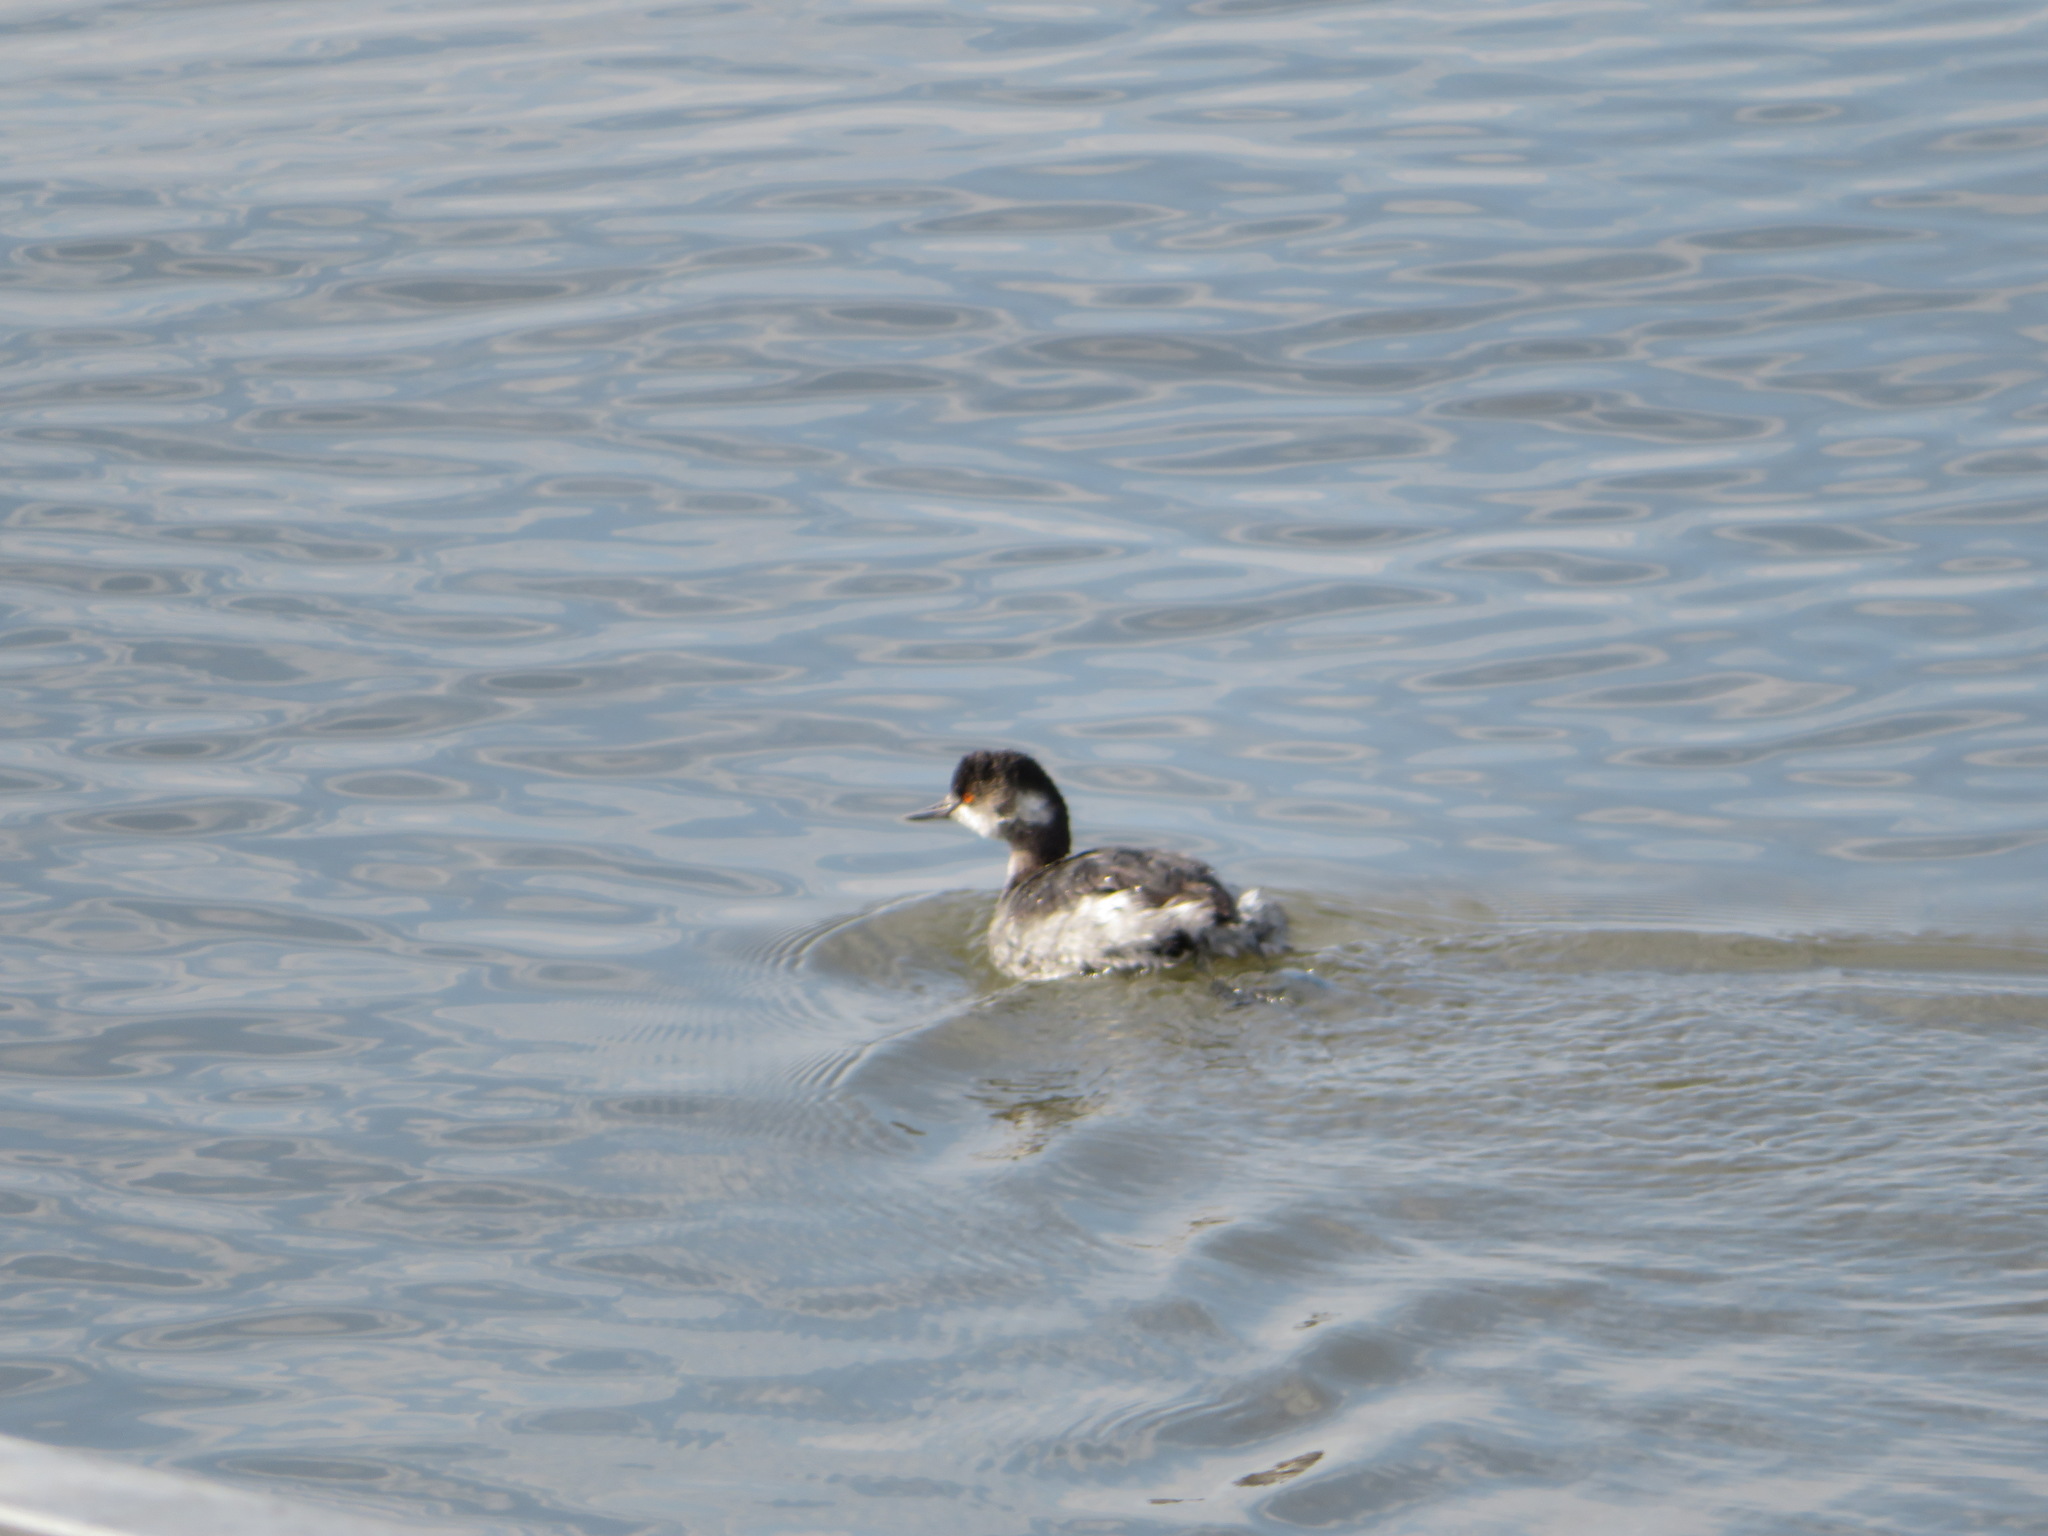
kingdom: Animalia
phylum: Chordata
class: Aves
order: Podicipediformes
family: Podicipedidae
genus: Podiceps
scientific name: Podiceps nigricollis
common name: Black-necked grebe
